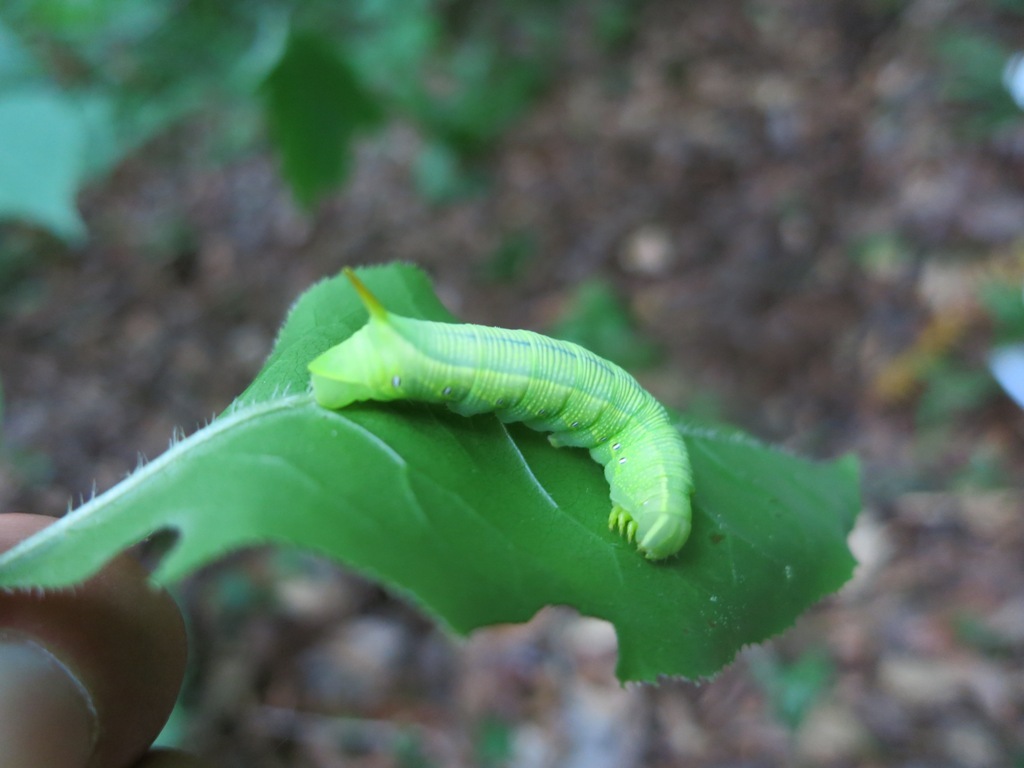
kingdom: Animalia
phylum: Arthropoda
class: Insecta
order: Lepidoptera
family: Sphingidae
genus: Deidamia
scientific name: Deidamia inscriptum
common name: Lettered sphinx
